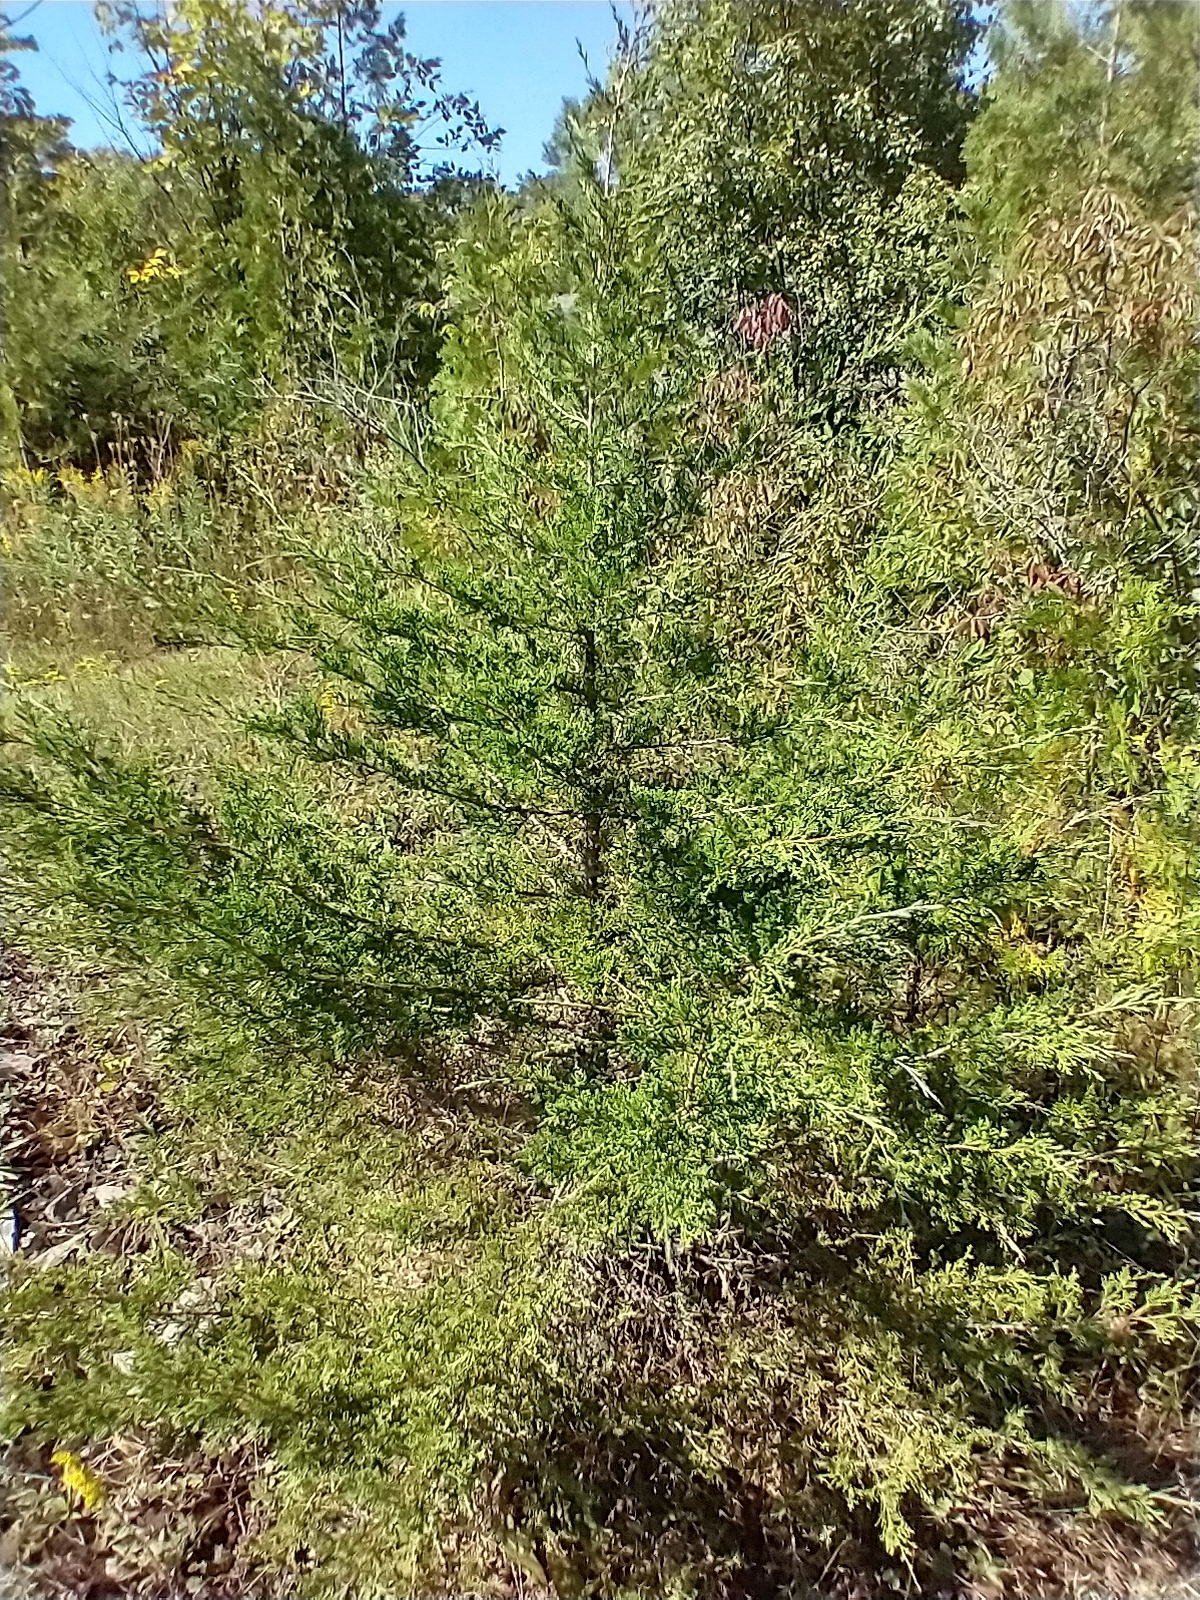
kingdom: Plantae
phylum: Tracheophyta
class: Pinopsida
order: Pinales
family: Cupressaceae
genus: Juniperus
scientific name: Juniperus virginiana
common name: Red juniper
